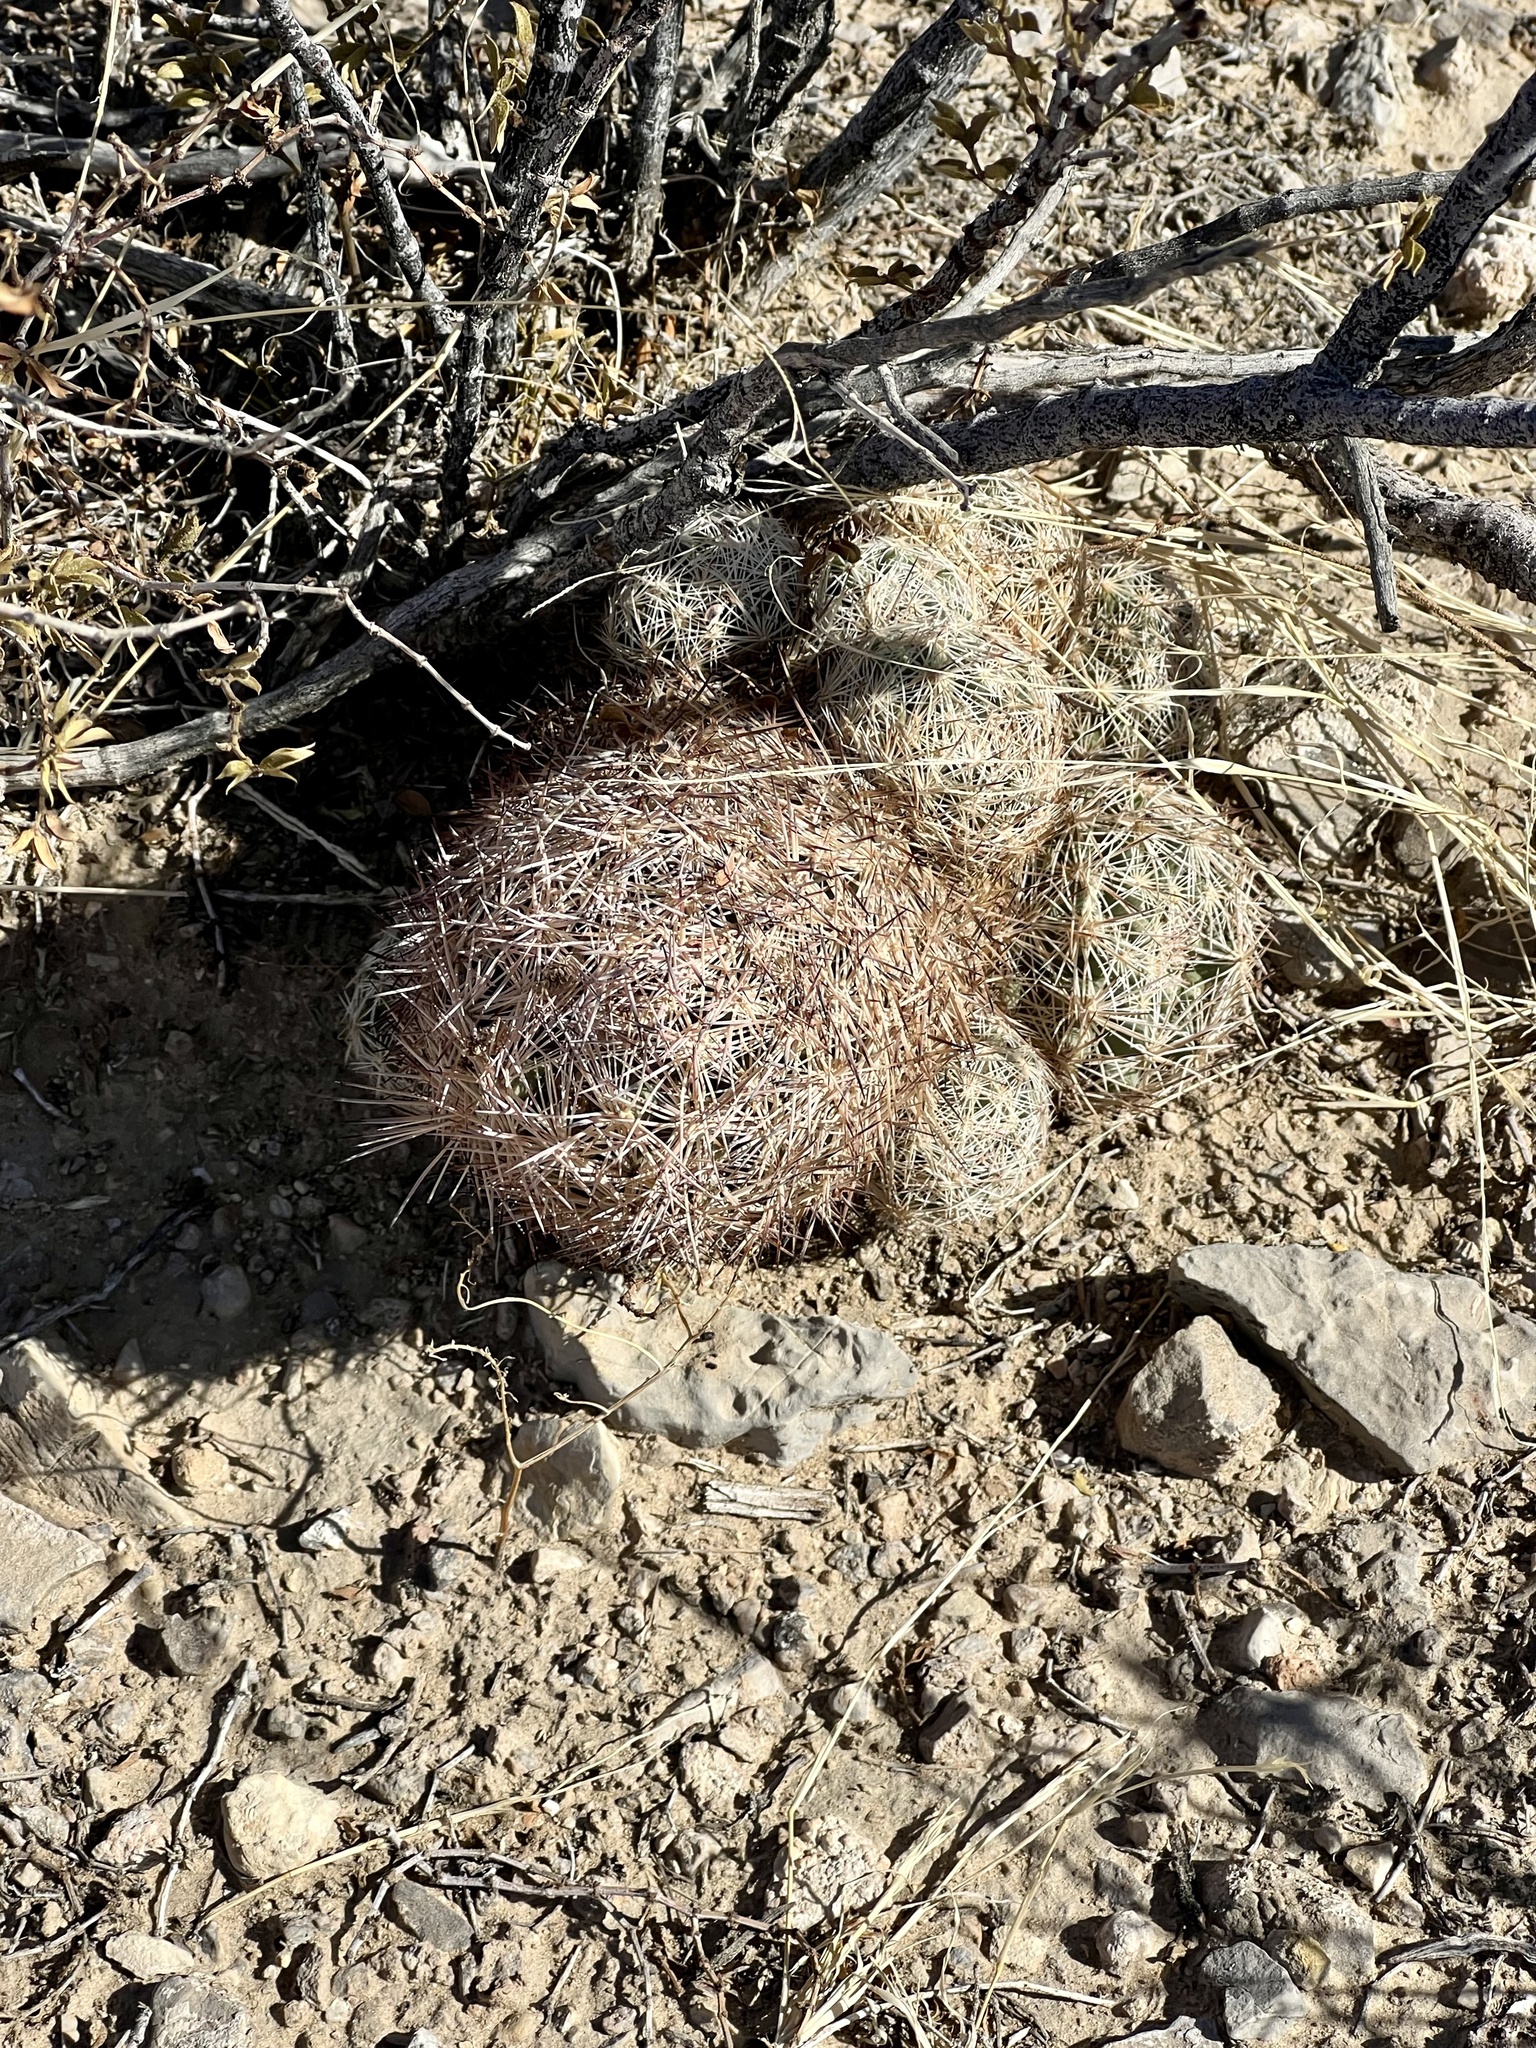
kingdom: Plantae
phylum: Tracheophyta
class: Magnoliopsida
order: Caryophyllales
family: Cactaceae
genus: Pelecyphora
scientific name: Pelecyphora dasyacantha
